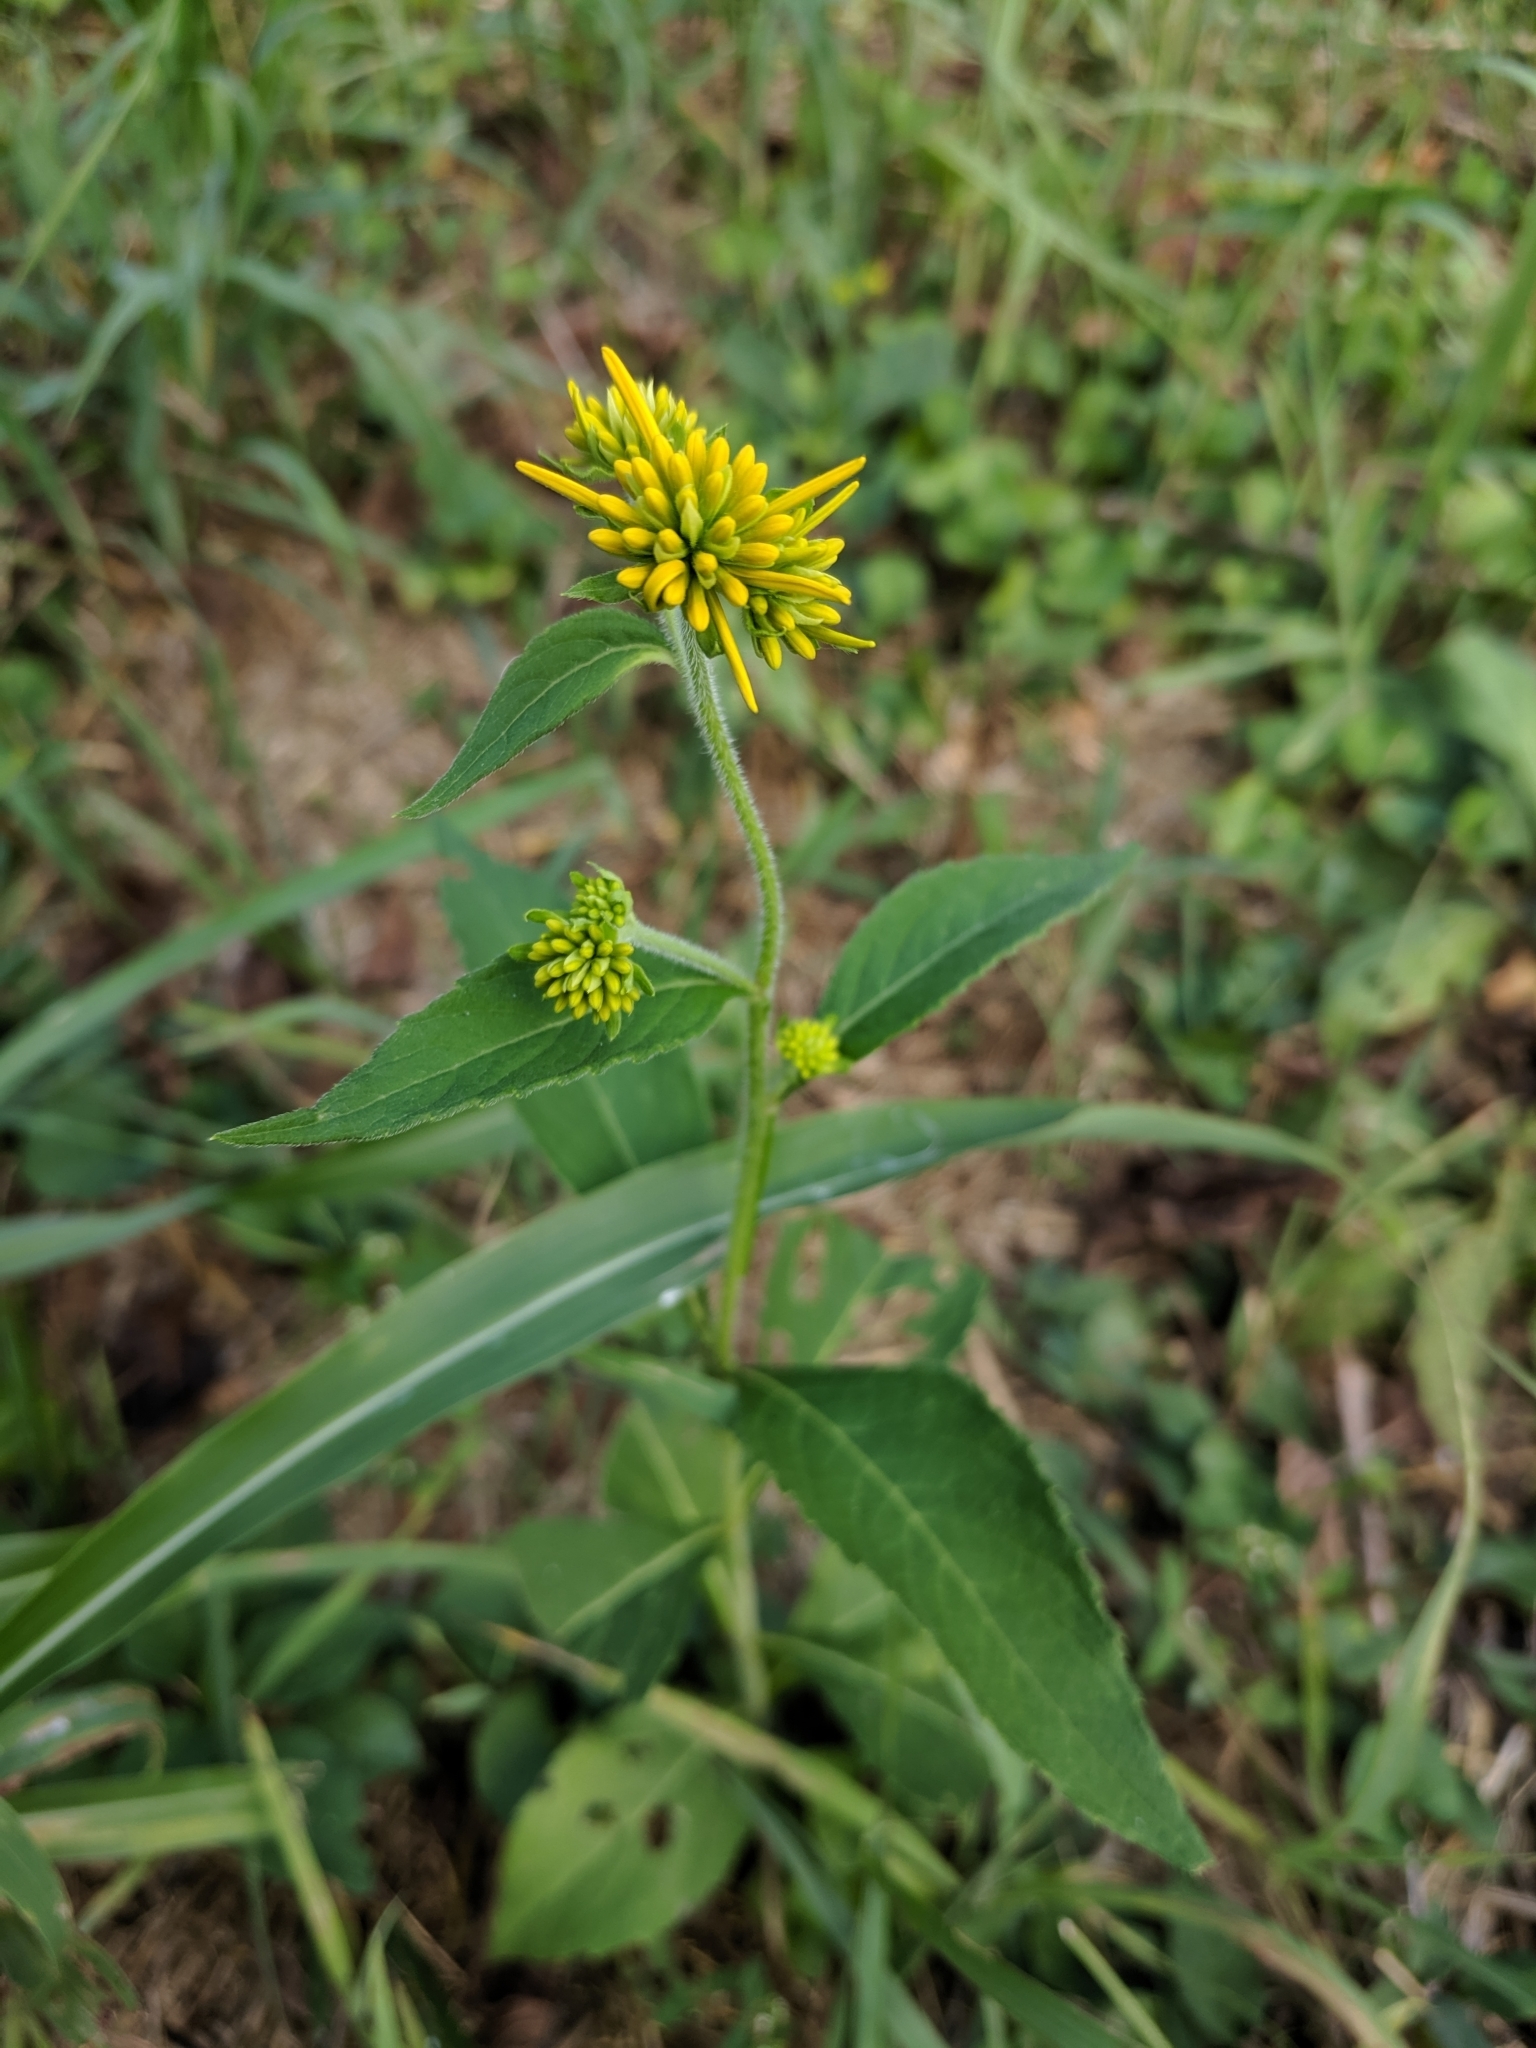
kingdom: Plantae
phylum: Tracheophyta
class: Magnoliopsida
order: Asterales
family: Asteraceae
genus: Verbesina
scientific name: Verbesina alternifolia
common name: Wingstem
